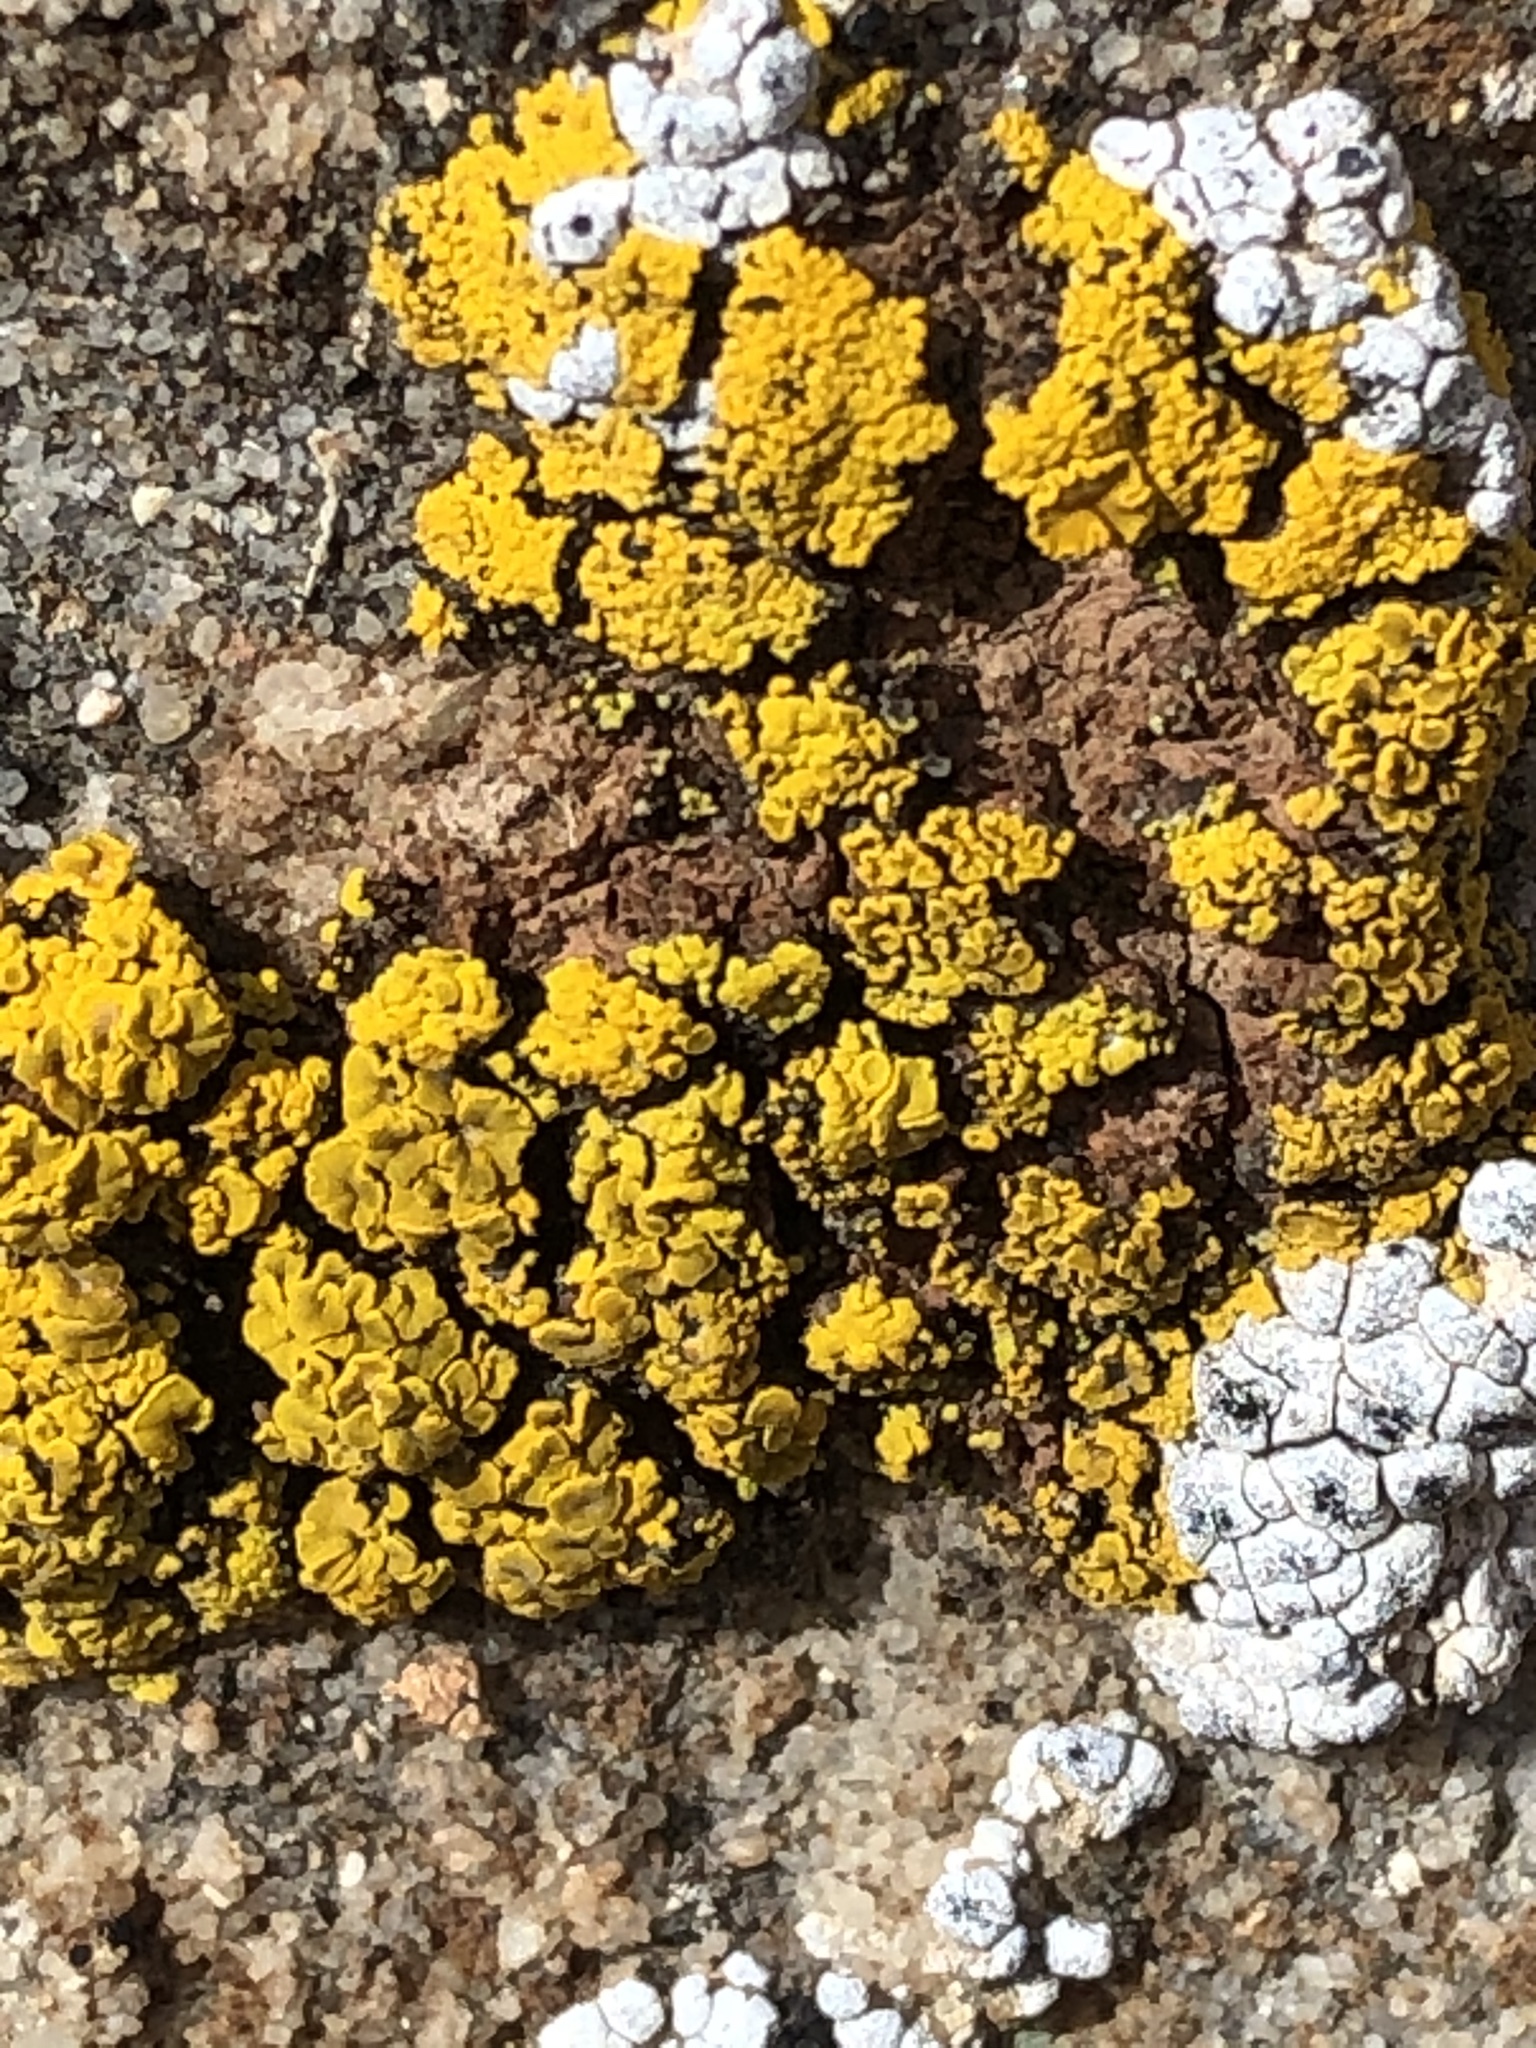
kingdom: Fungi
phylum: Ascomycota
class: Candelariomycetes
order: Candelariales
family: Candelariaceae
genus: Candelariella
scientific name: Candelariella citrina
